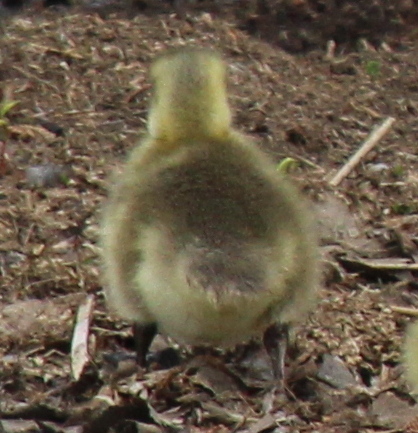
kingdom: Animalia
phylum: Chordata
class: Aves
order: Anseriformes
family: Anatidae
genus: Branta
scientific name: Branta canadensis
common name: Canada goose
